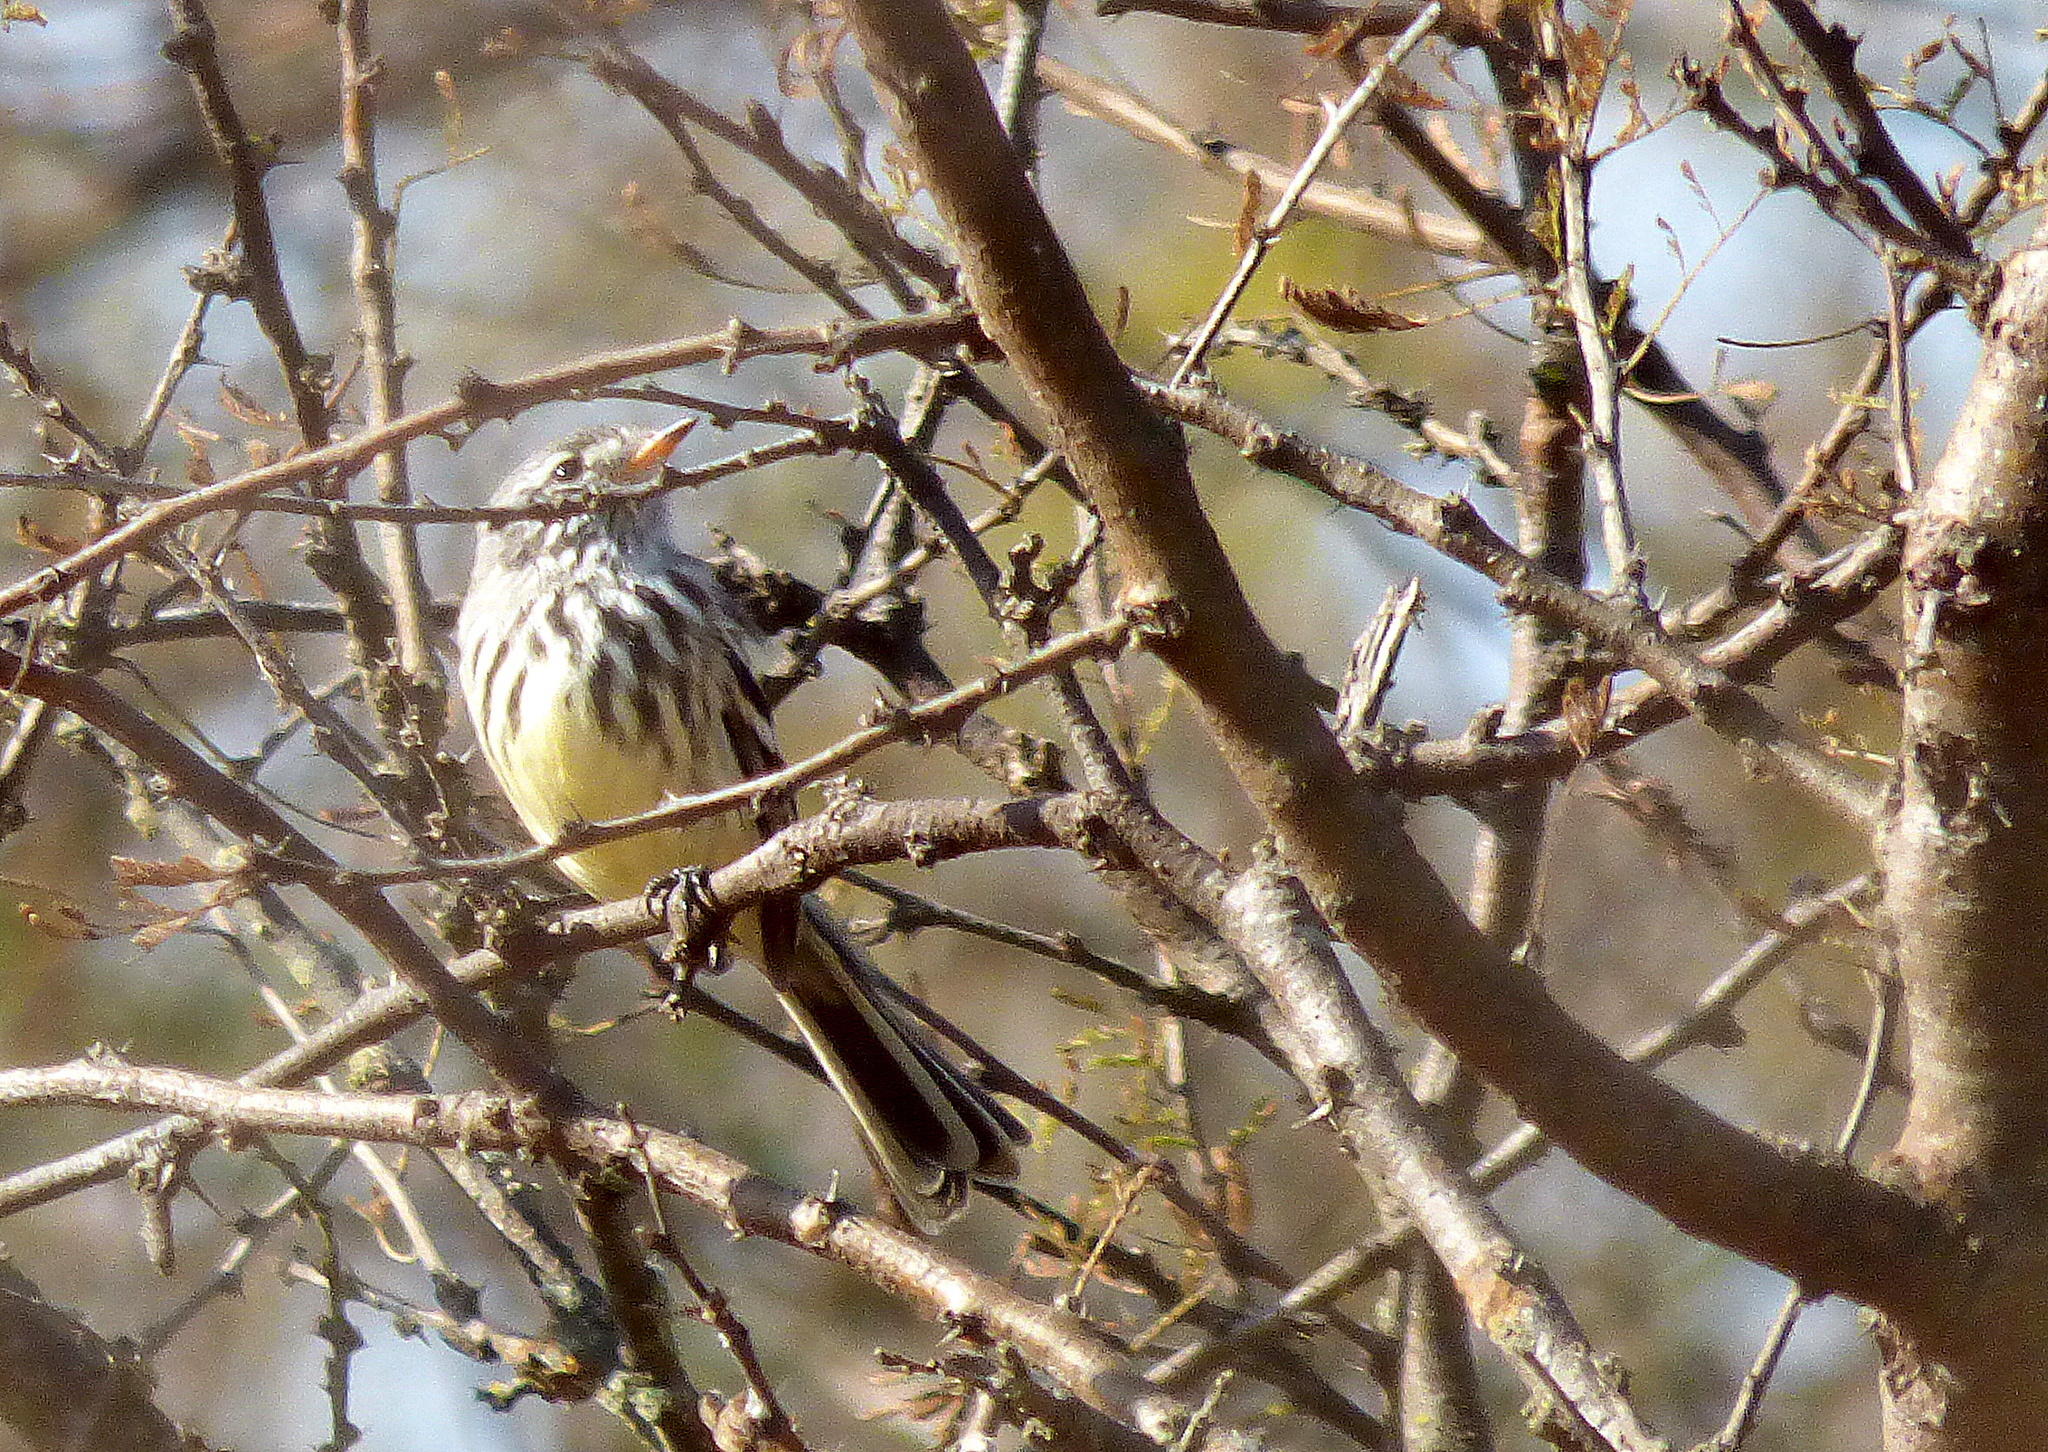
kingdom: Animalia
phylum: Chordata
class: Aves
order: Passeriformes
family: Tyrannidae
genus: Anairetes
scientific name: Anairetes flavirostris
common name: Yellow-billed tit-tyrant
